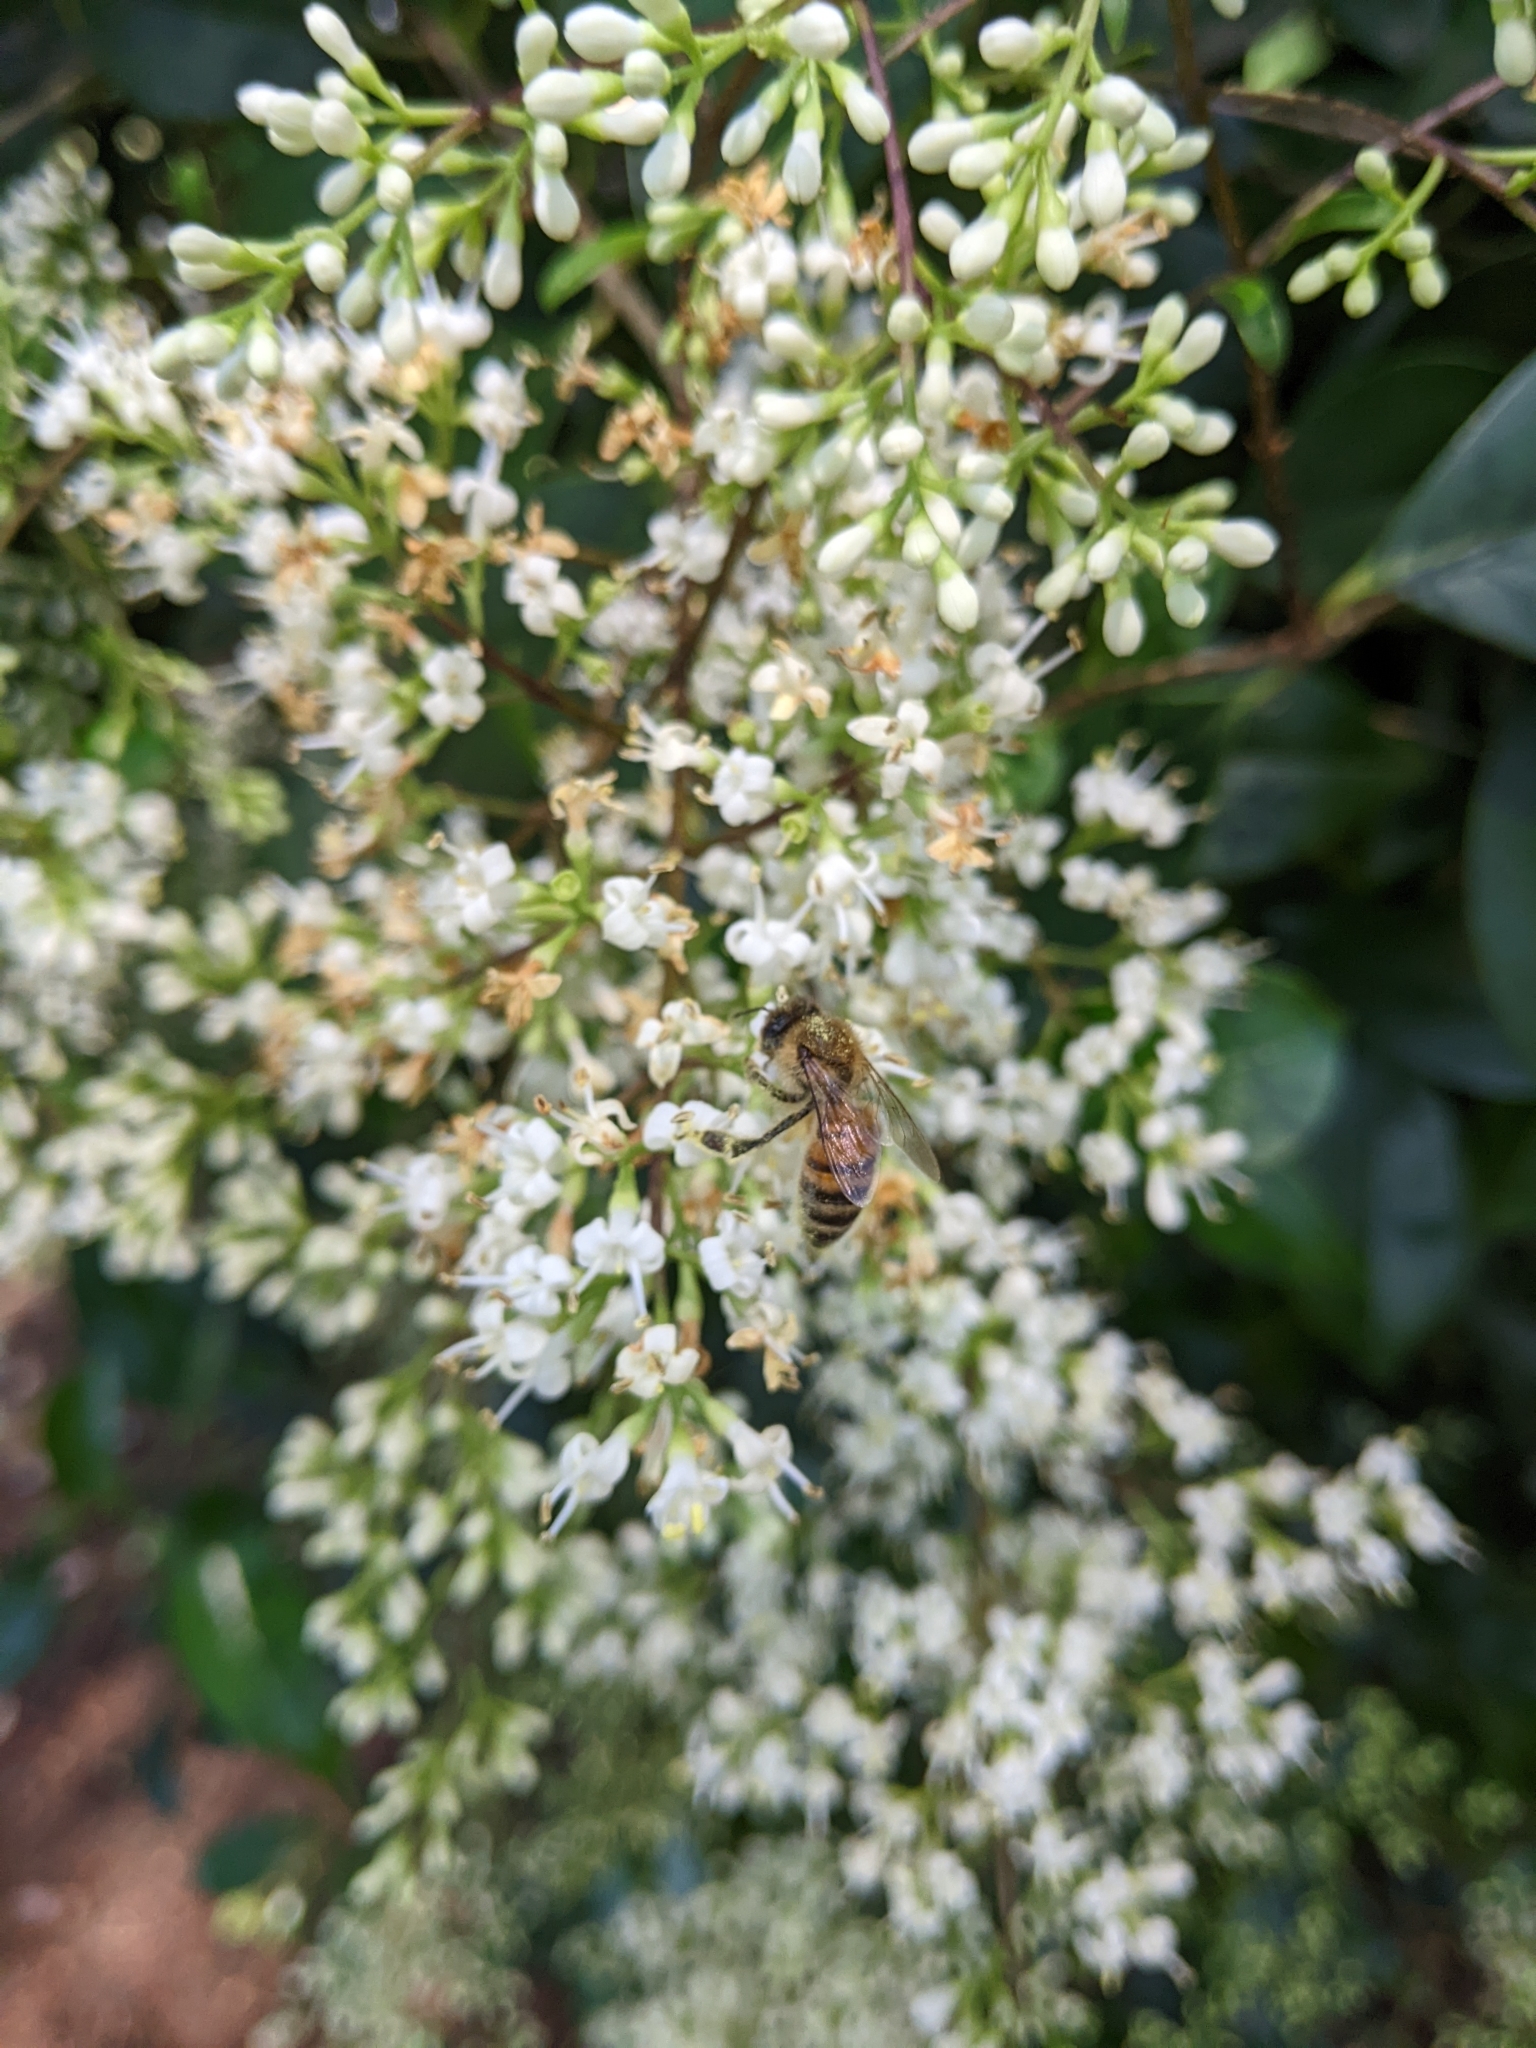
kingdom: Animalia
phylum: Arthropoda
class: Insecta
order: Hymenoptera
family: Apidae
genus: Apis
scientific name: Apis mellifera
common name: Honey bee
